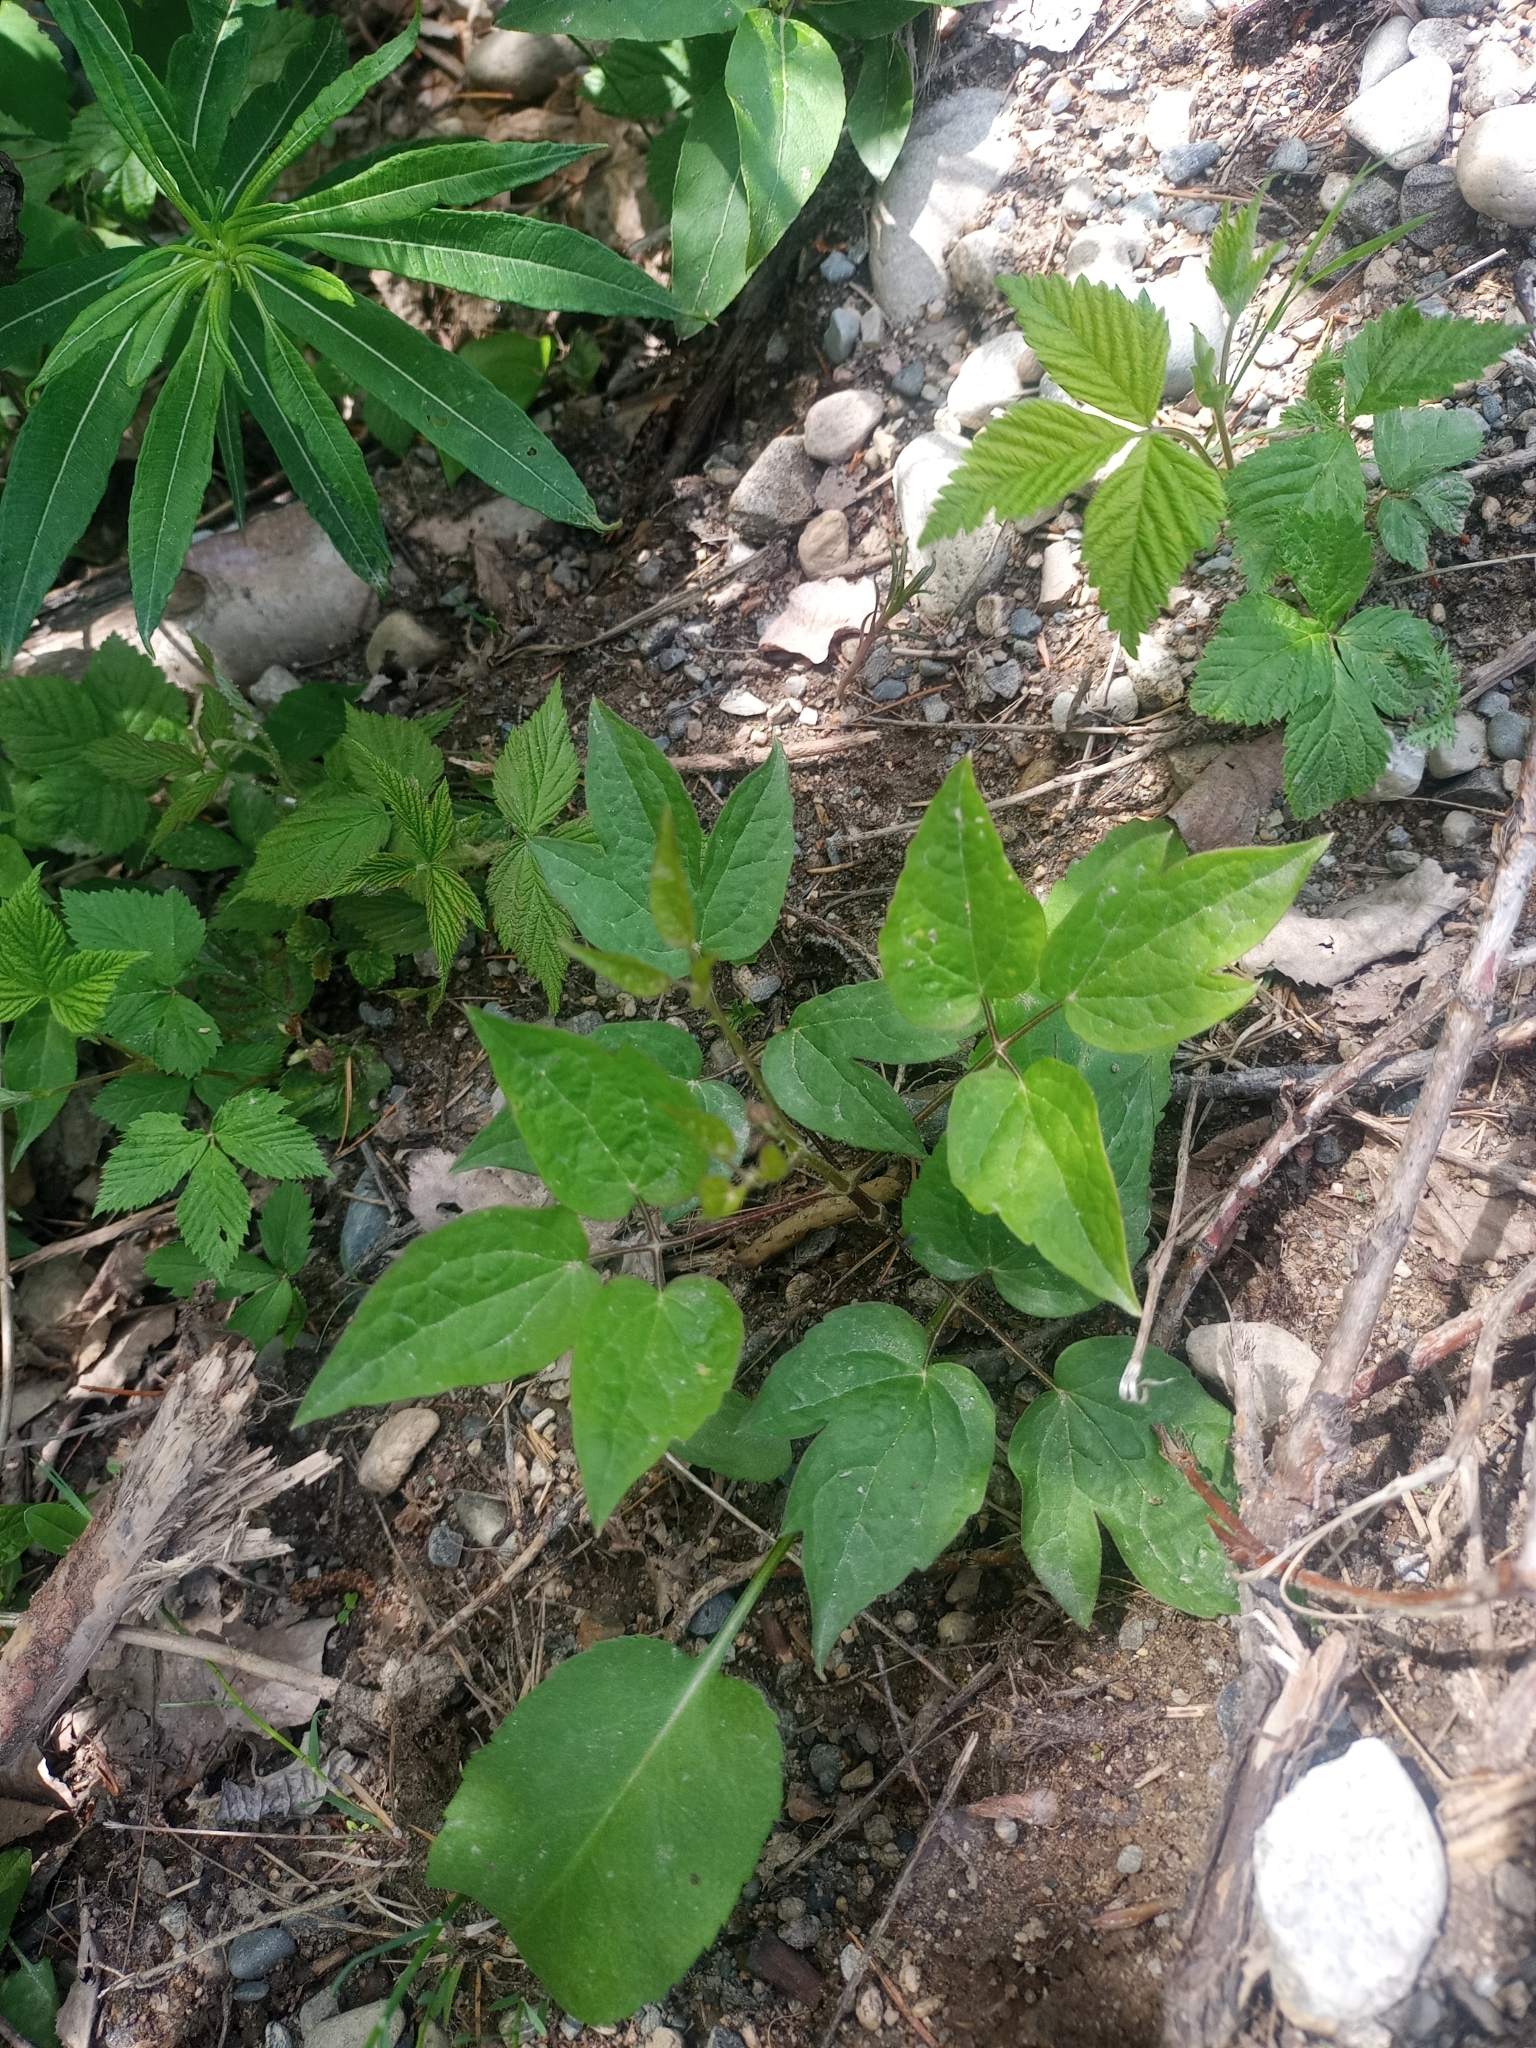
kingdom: Plantae
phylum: Tracheophyta
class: Magnoliopsida
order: Ranunculales
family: Ranunculaceae
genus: Clematis
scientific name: Clematis occidentalis
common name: Purple clematis
